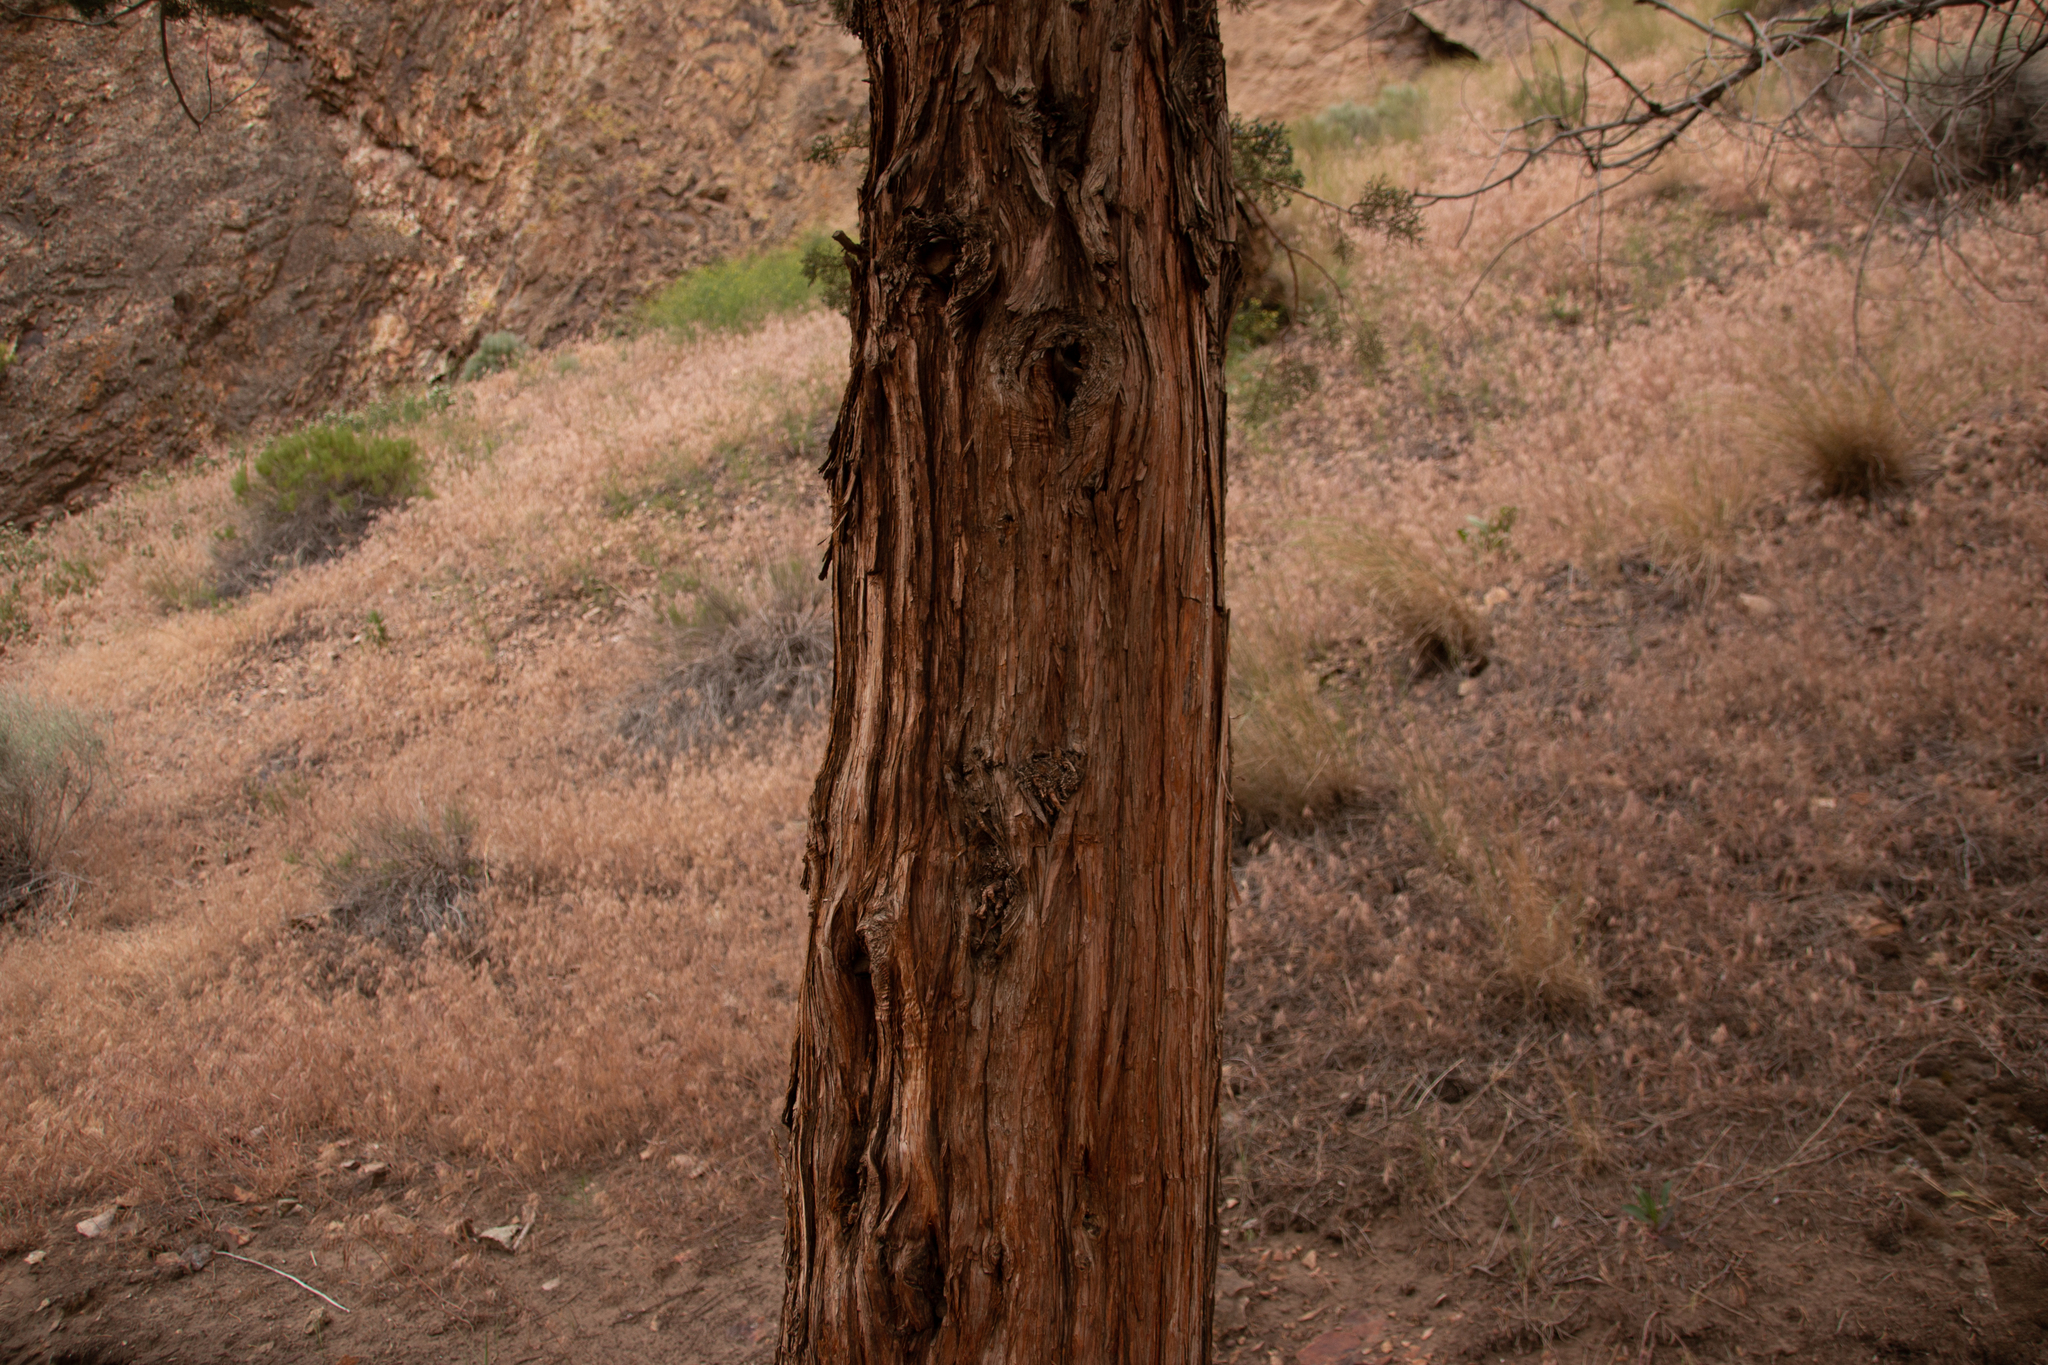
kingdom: Plantae
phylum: Tracheophyta
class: Pinopsida
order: Pinales
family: Cupressaceae
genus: Juniperus
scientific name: Juniperus occidentalis
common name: Western juniper
